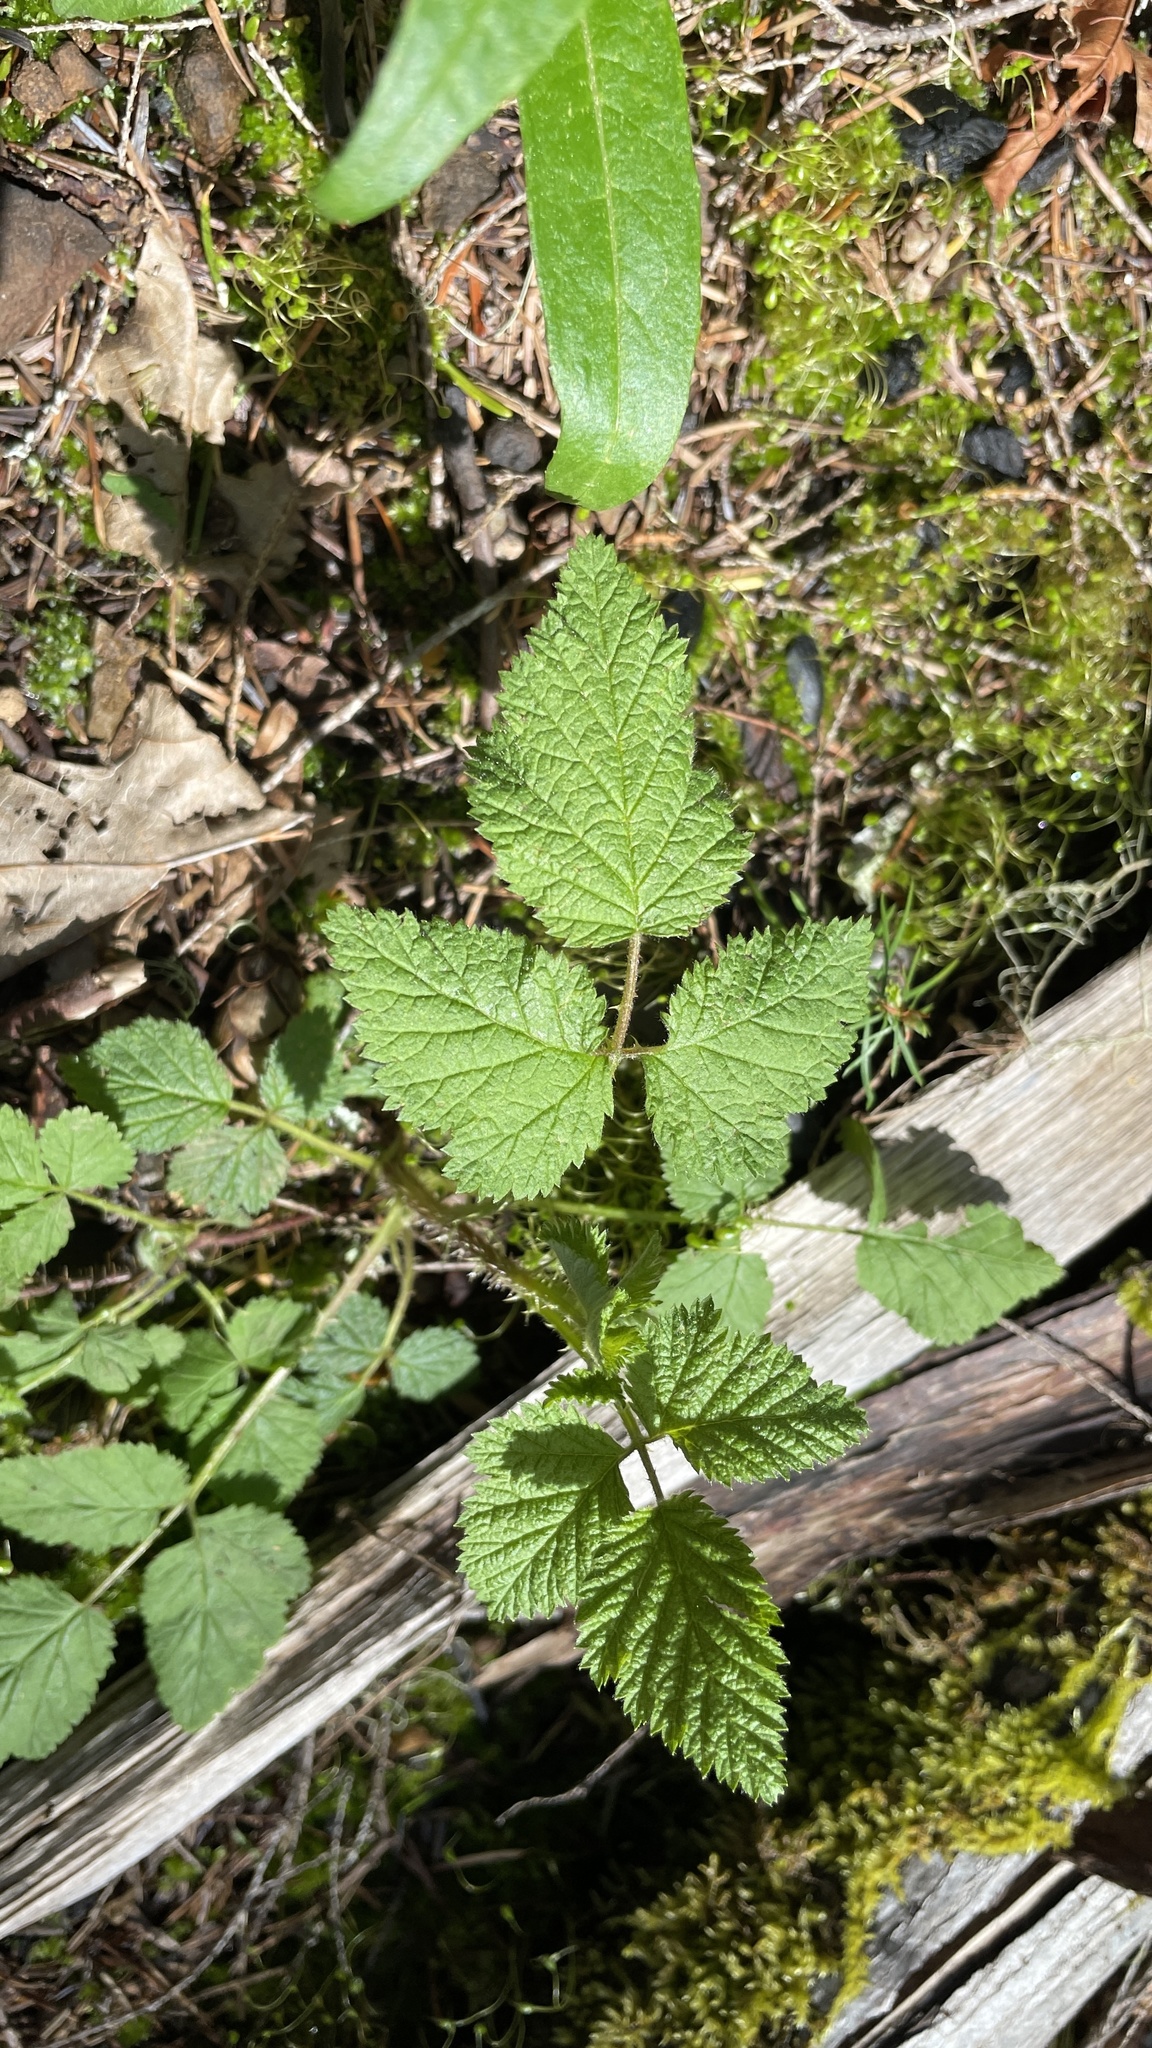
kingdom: Plantae
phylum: Tracheophyta
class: Magnoliopsida
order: Rosales
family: Rosaceae
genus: Rubus
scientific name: Rubus ursinus
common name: Pacific blackberry
